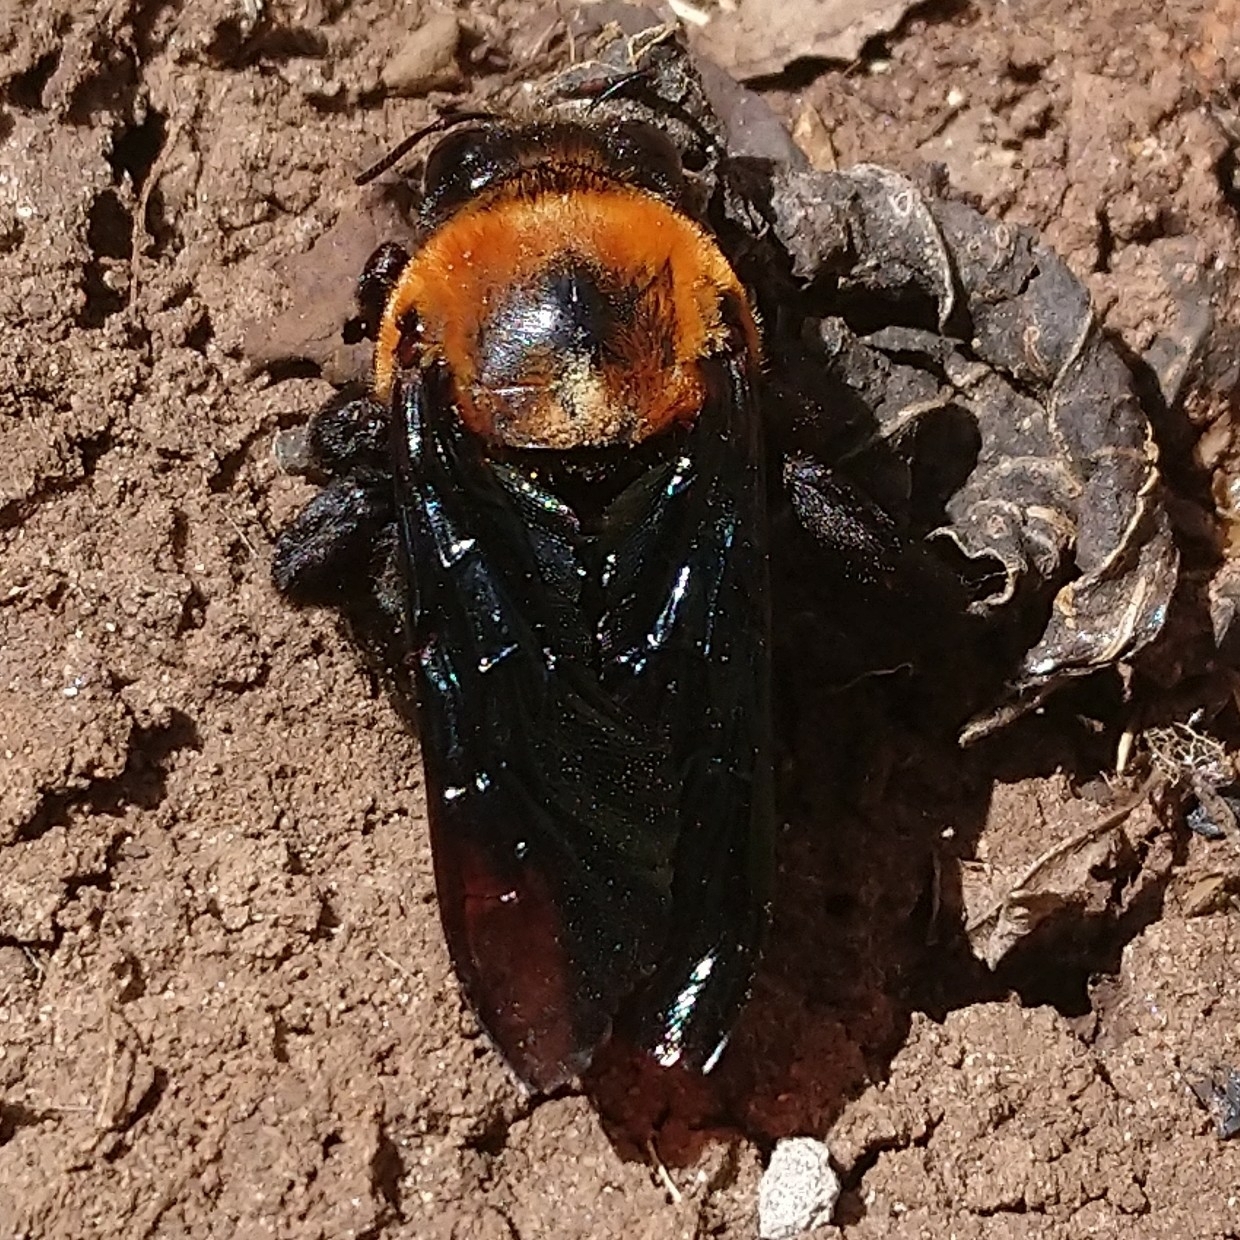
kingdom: Animalia
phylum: Arthropoda
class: Insecta
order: Hymenoptera
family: Apidae
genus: Xylocopa
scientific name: Xylocopa flavorufa
